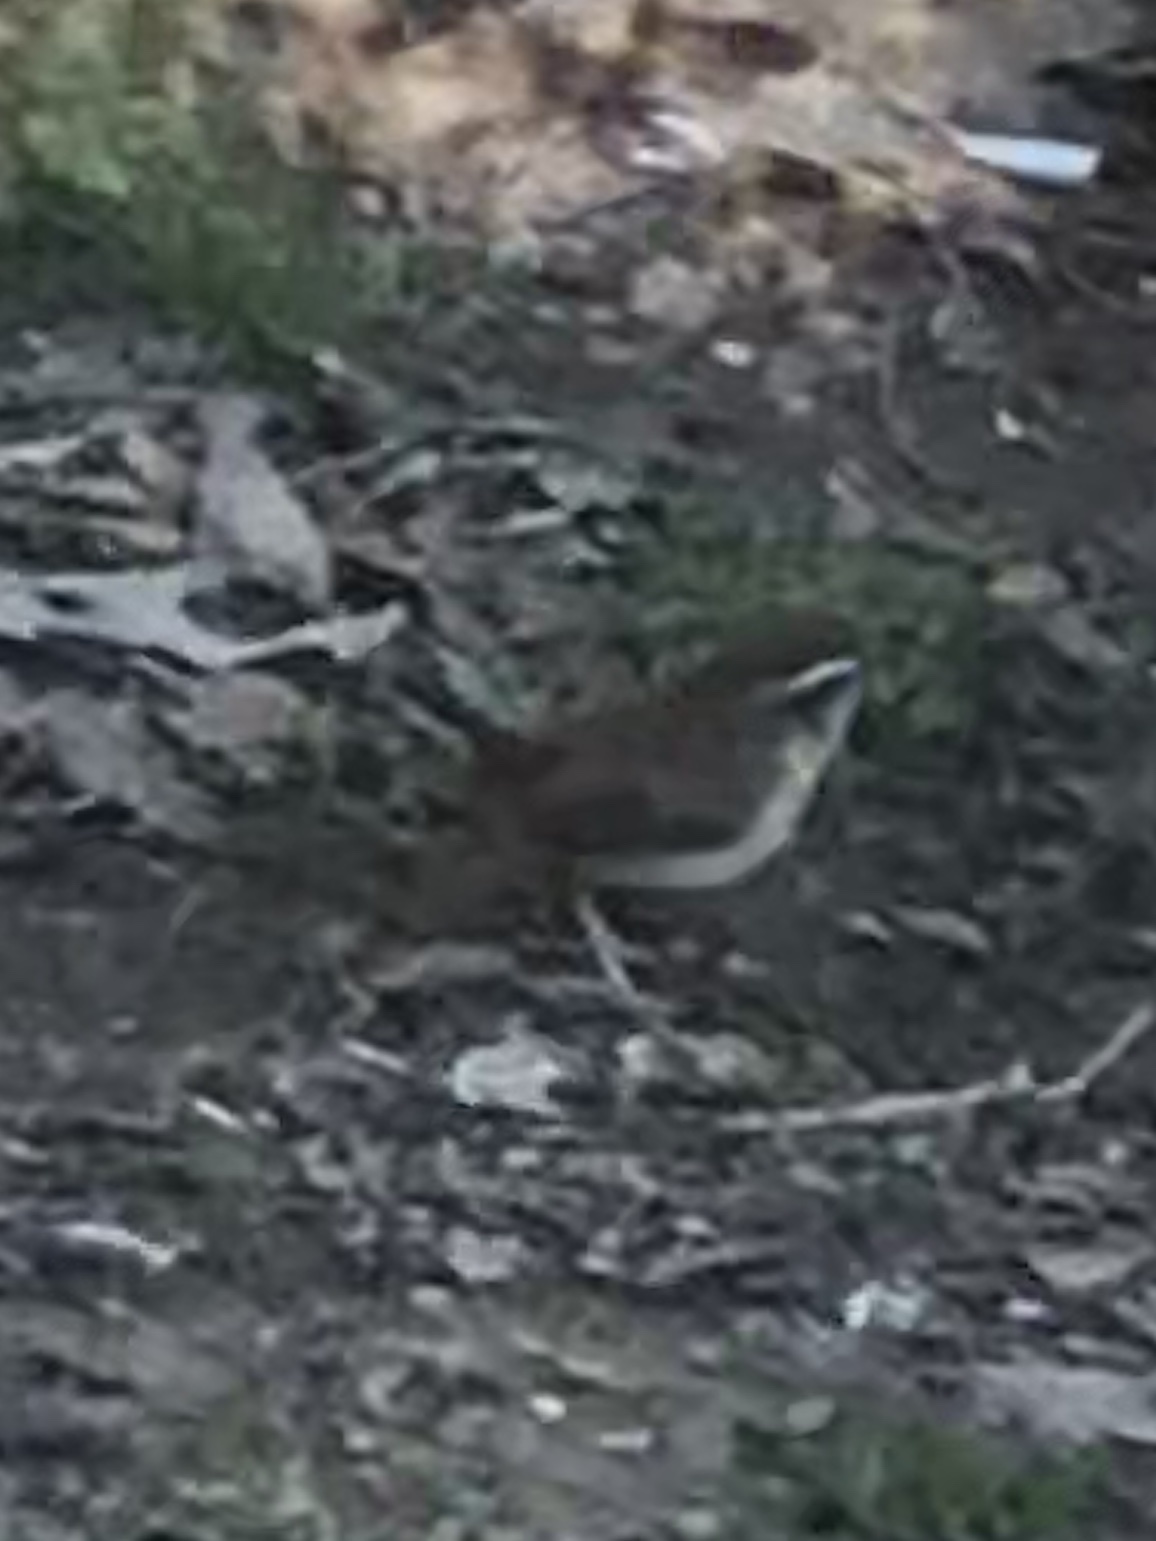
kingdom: Animalia
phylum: Chordata
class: Aves
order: Passeriformes
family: Troglodytidae
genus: Thryothorus
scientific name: Thryothorus ludovicianus
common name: Carolina wren
